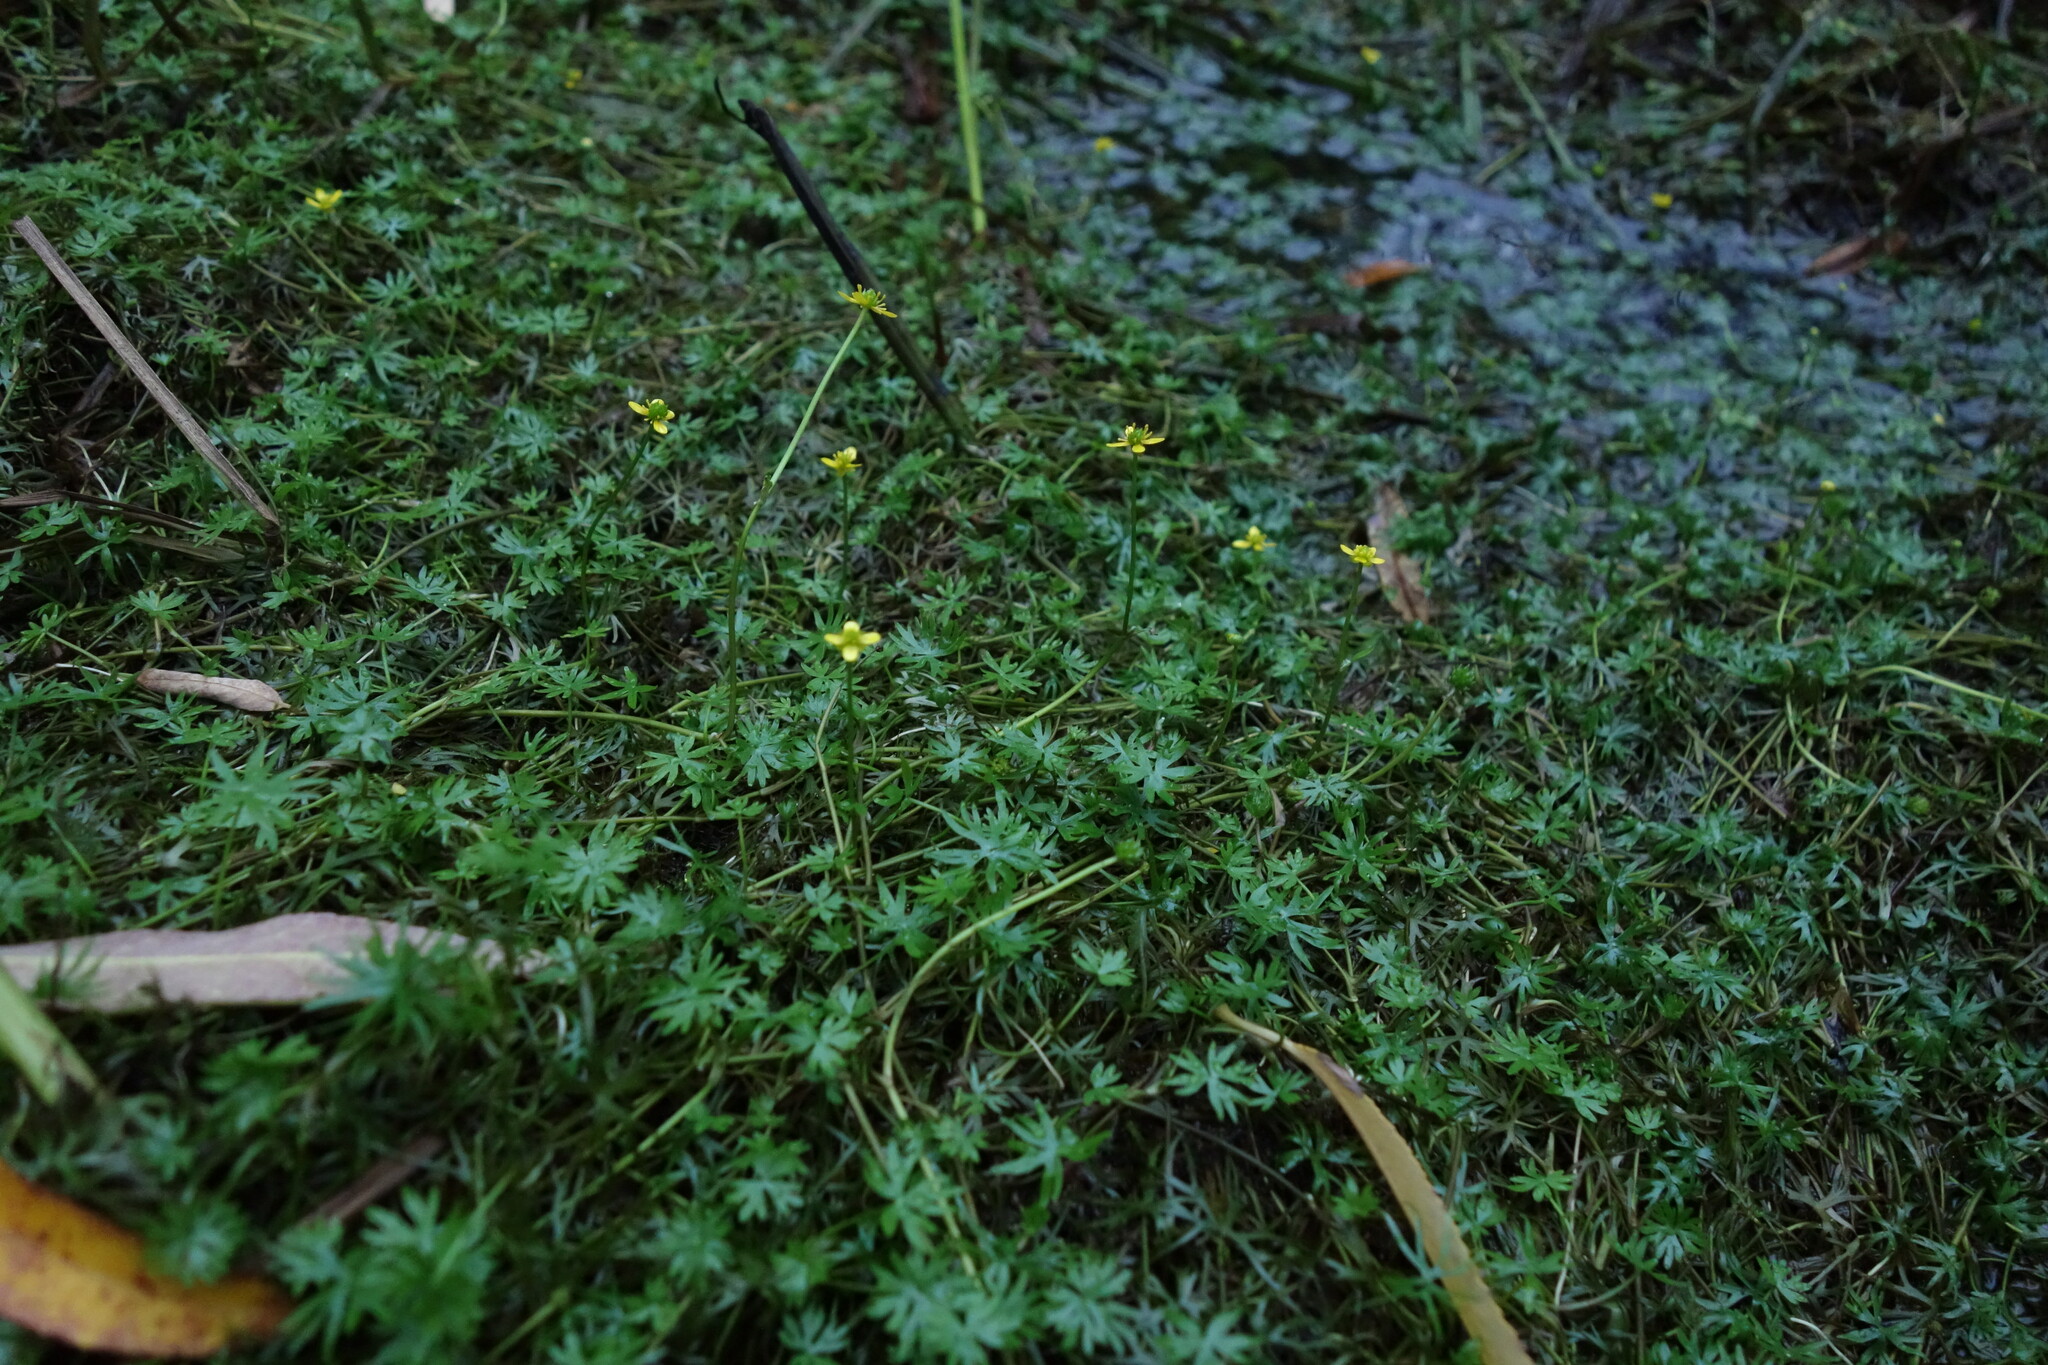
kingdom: Plantae
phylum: Tracheophyta
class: Magnoliopsida
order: Ranunculales
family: Ranunculaceae
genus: Ranunculus
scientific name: Ranunculus gmelinii
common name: Gmelin's buttercup
